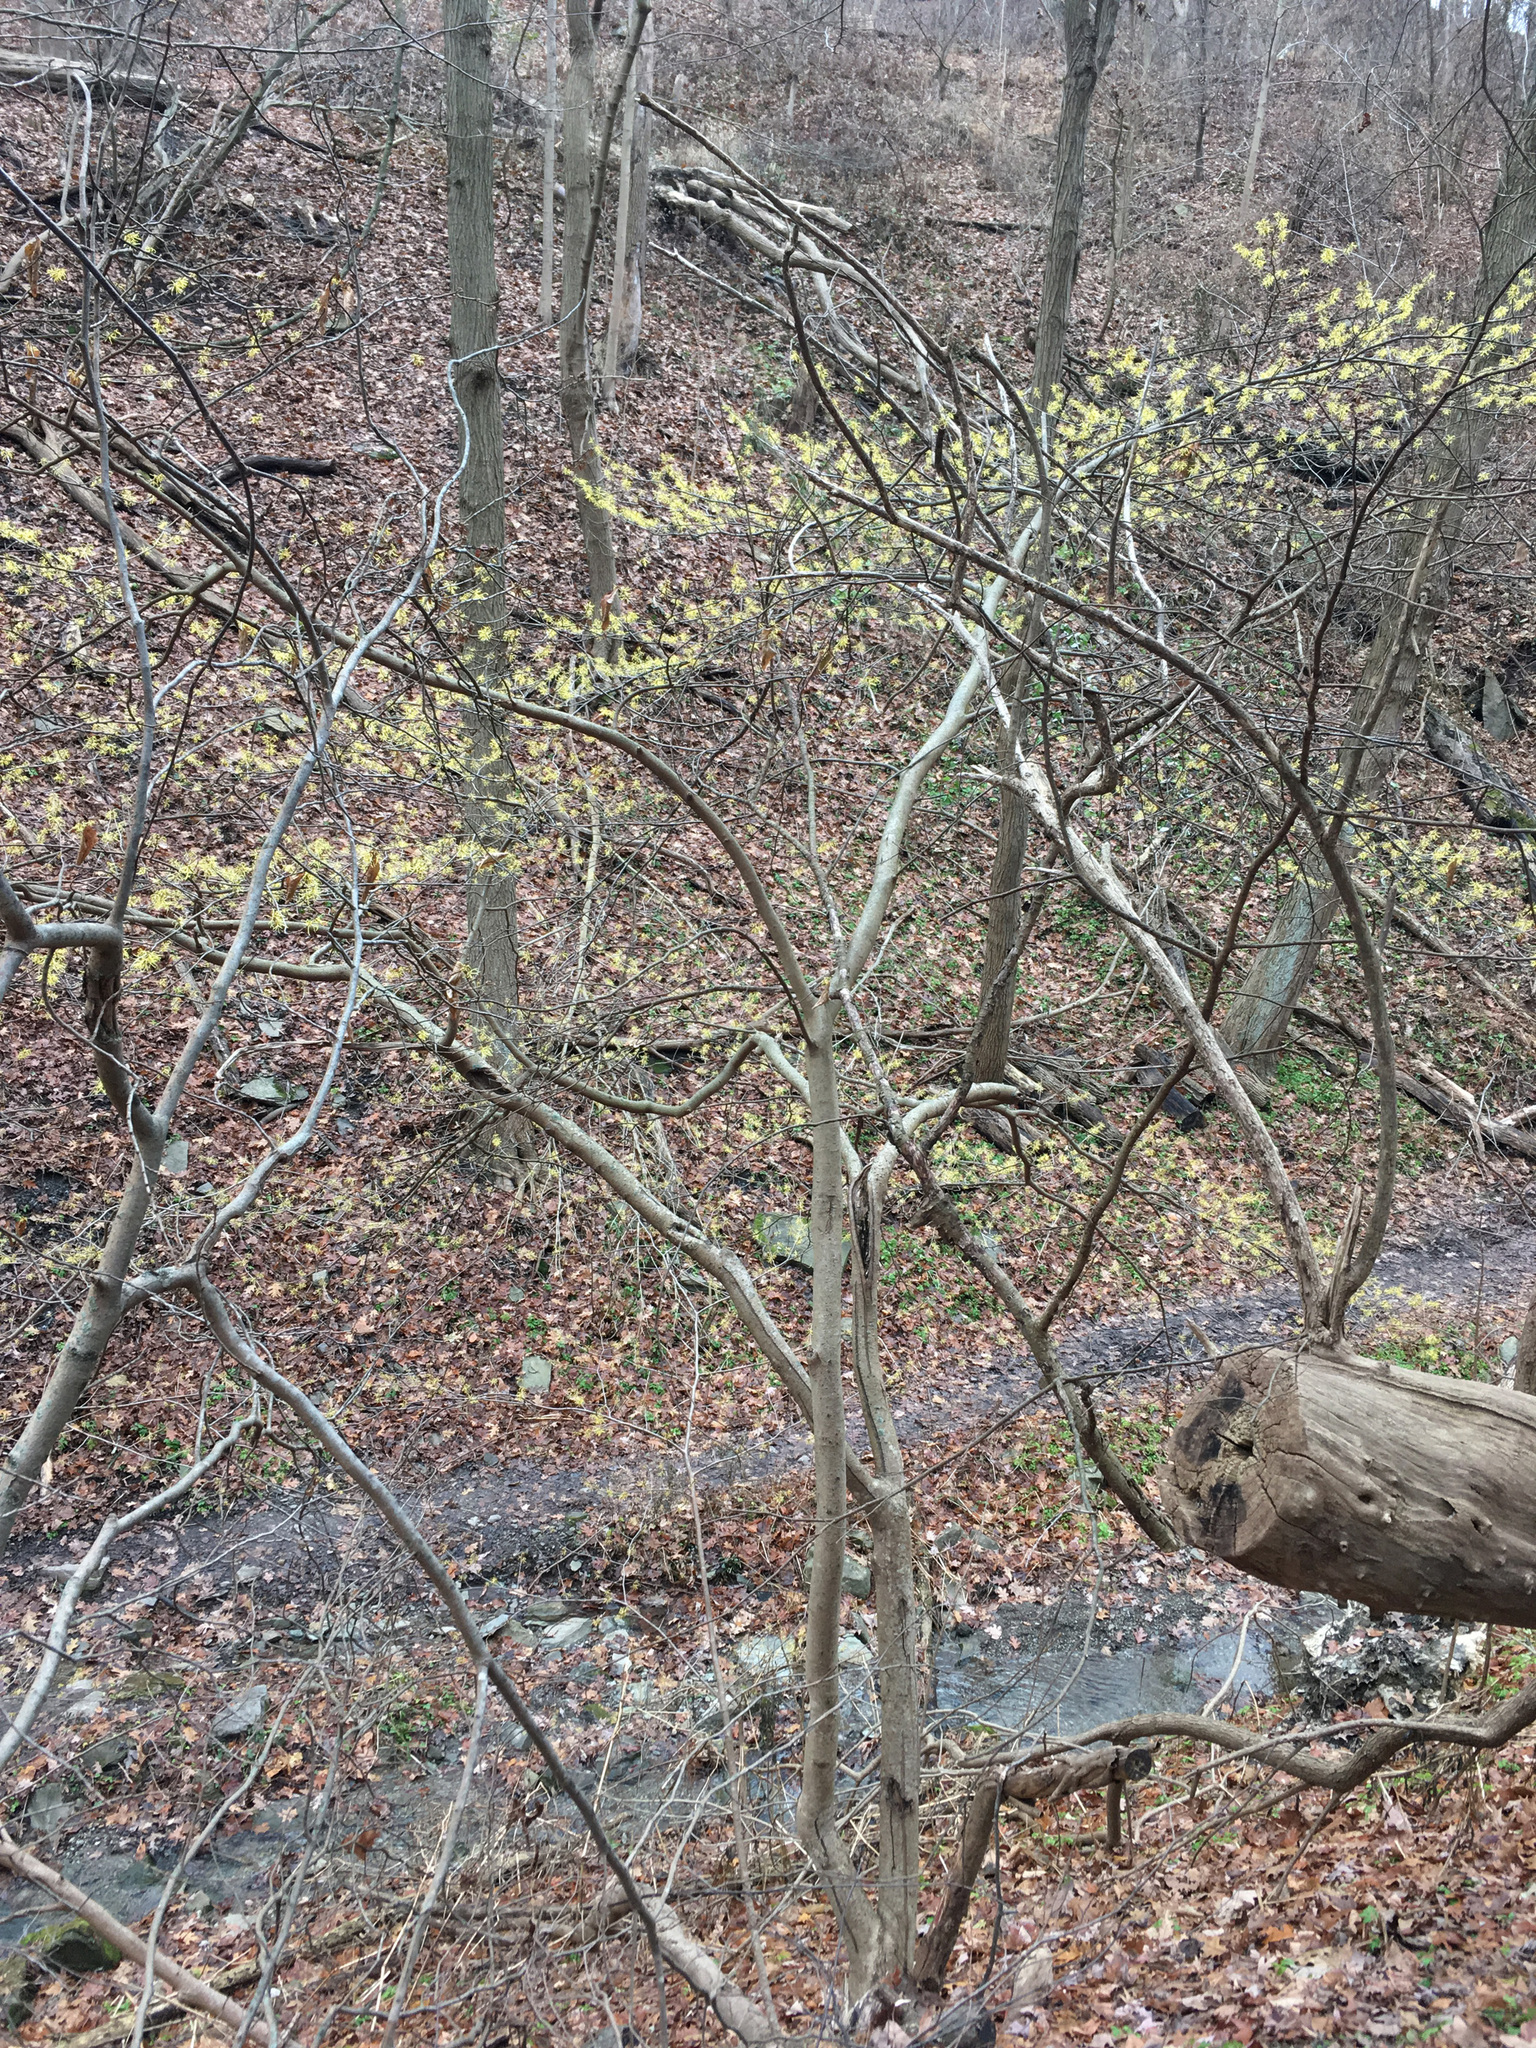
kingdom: Plantae
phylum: Tracheophyta
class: Magnoliopsida
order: Saxifragales
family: Hamamelidaceae
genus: Hamamelis
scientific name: Hamamelis virginiana
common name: Witch-hazel
